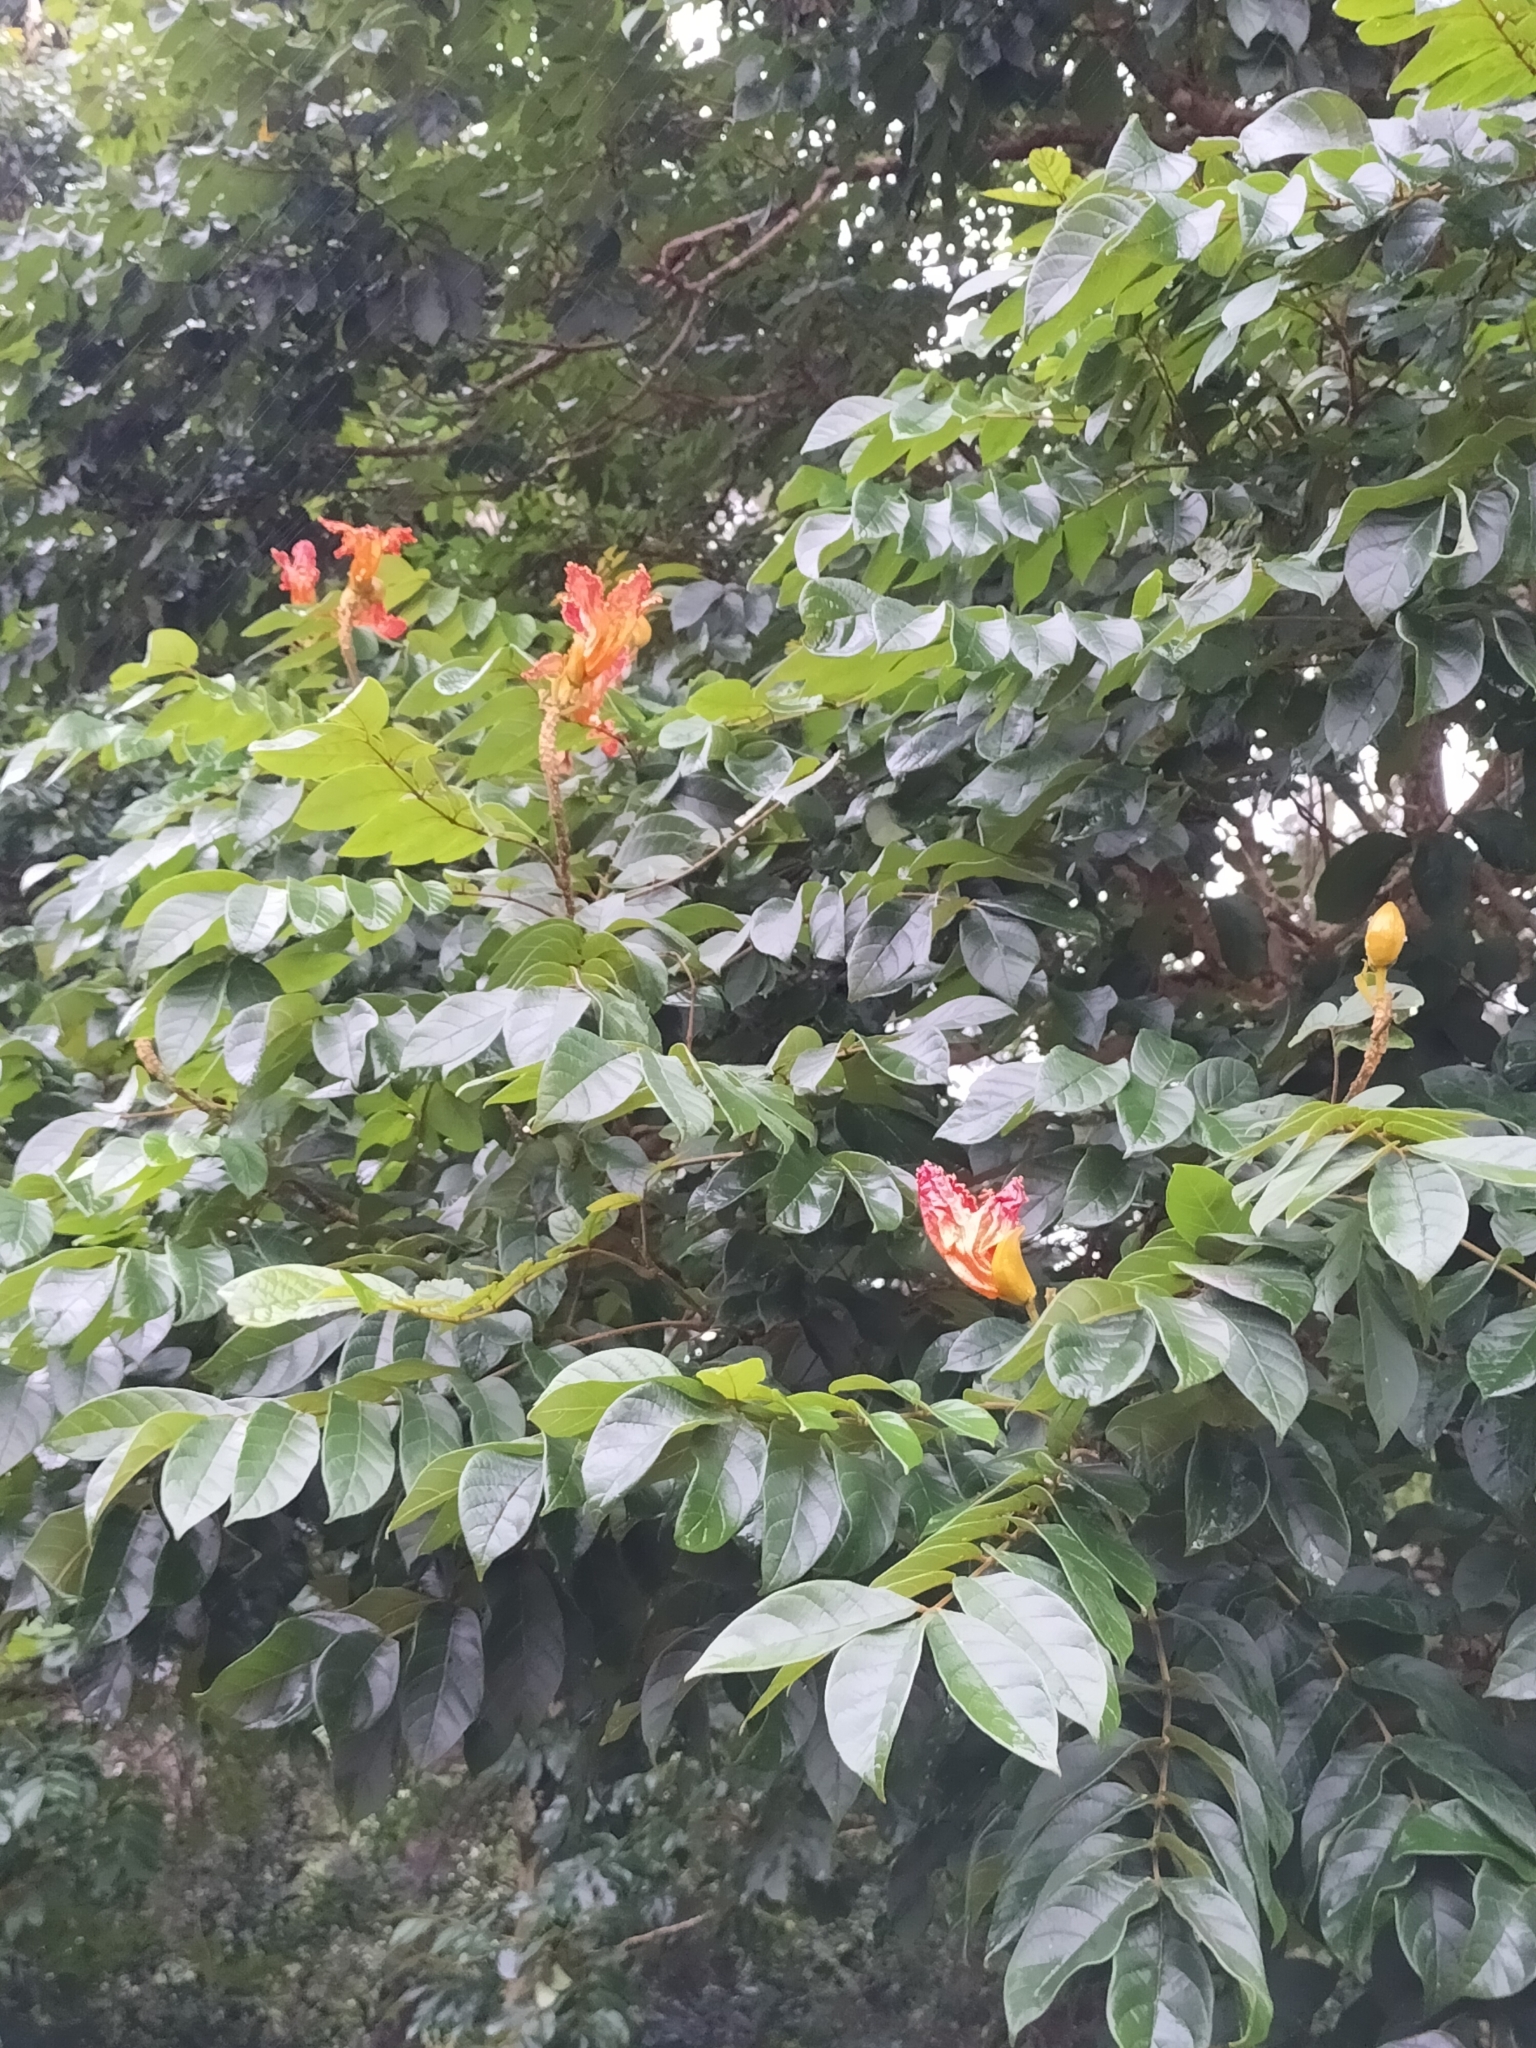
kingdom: Plantae
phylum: Tracheophyta
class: Magnoliopsida
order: Lamiales
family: Bignoniaceae
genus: Spathodea
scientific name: Spathodea campanulata
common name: African tuliptree
